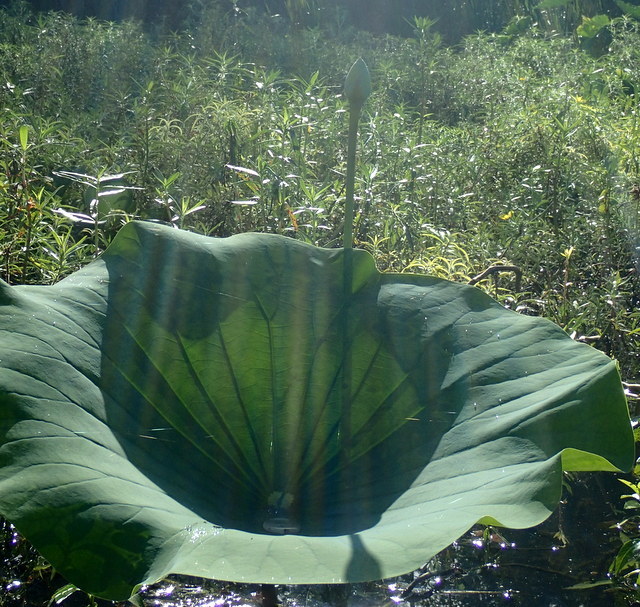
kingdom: Plantae
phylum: Tracheophyta
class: Magnoliopsida
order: Proteales
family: Nelumbonaceae
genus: Nelumbo
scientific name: Nelumbo lutea
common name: American lotus
